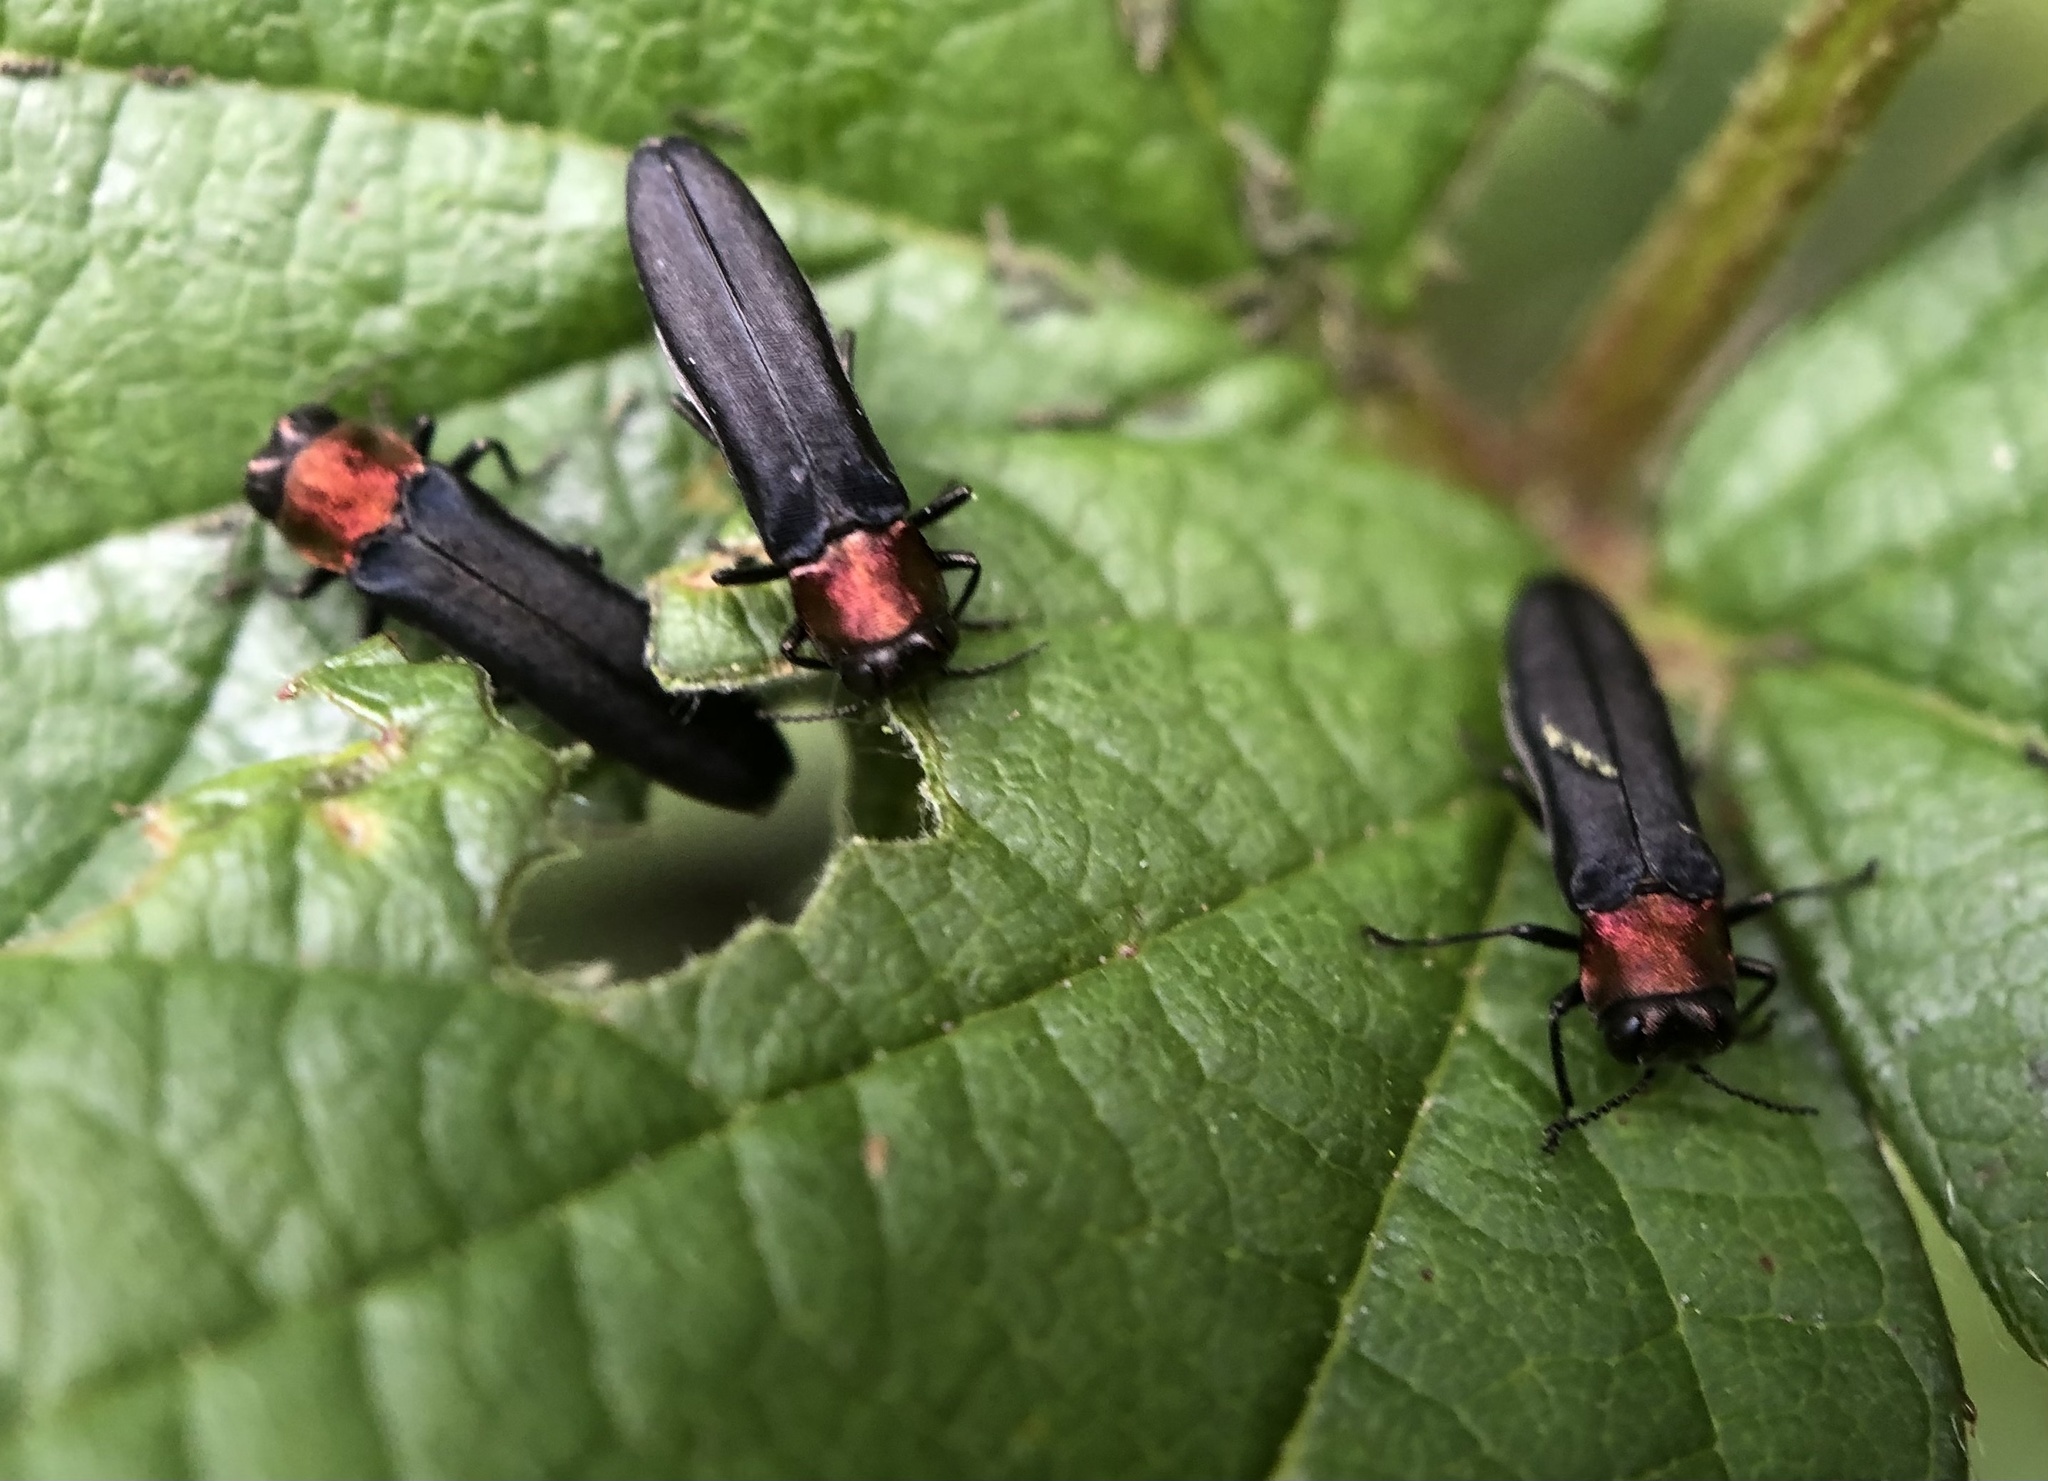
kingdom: Animalia
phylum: Arthropoda
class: Insecta
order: Coleoptera
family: Buprestidae
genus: Agrilus
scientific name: Agrilus ruficollis
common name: Red-necked cane borer beetle
